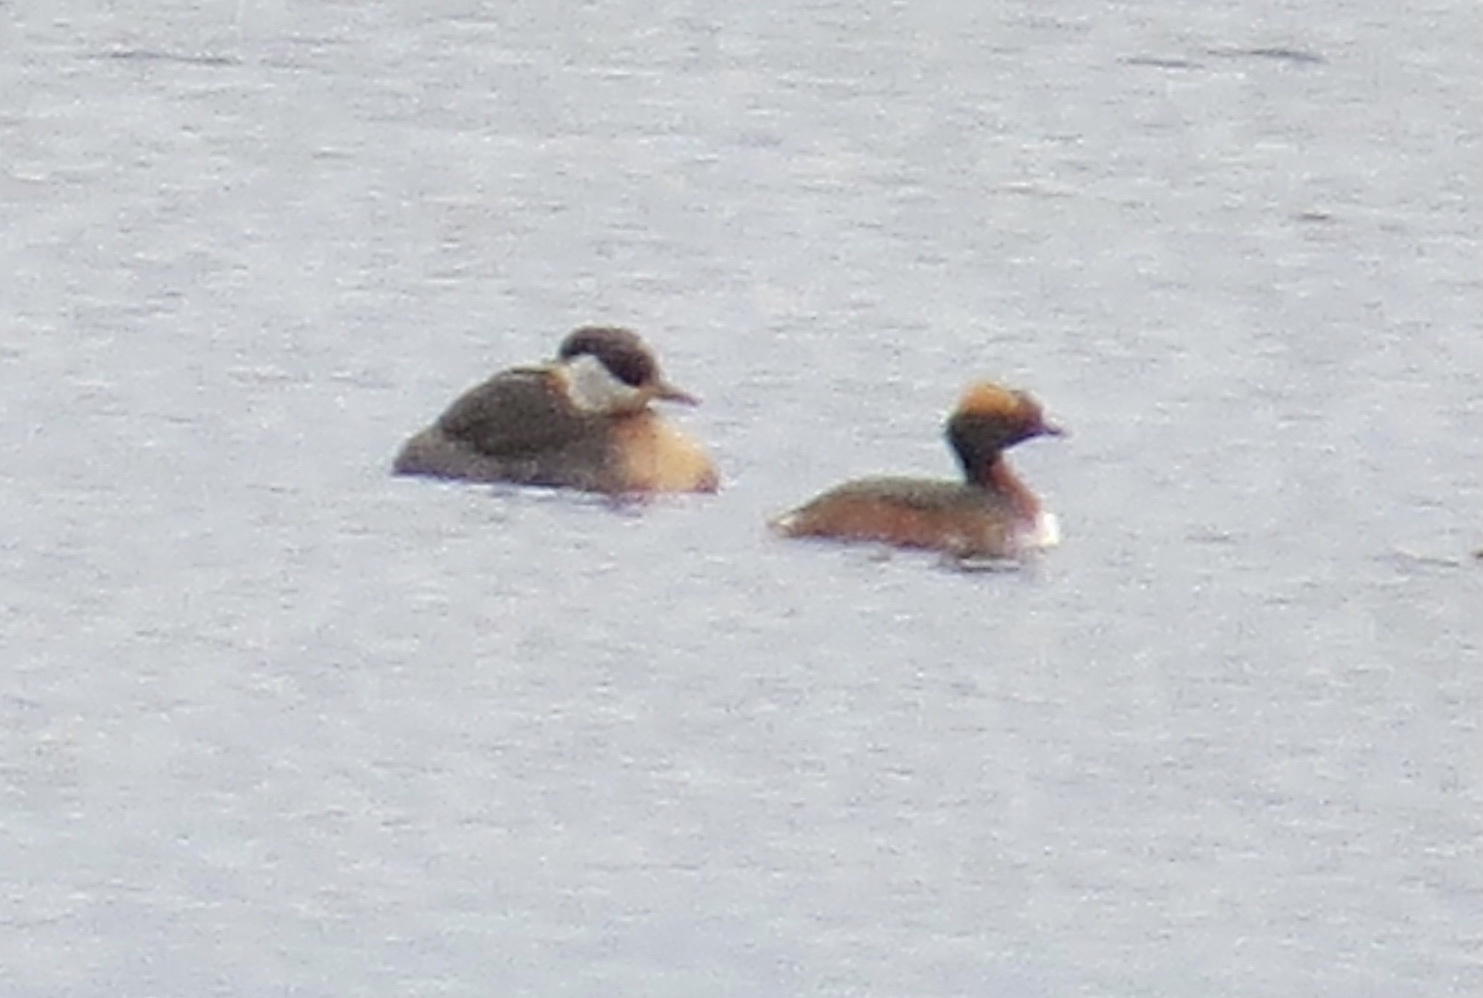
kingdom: Animalia
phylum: Chordata
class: Aves
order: Podicipediformes
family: Podicipedidae
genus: Podiceps
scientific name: Podiceps grisegena
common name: Red-necked grebe
